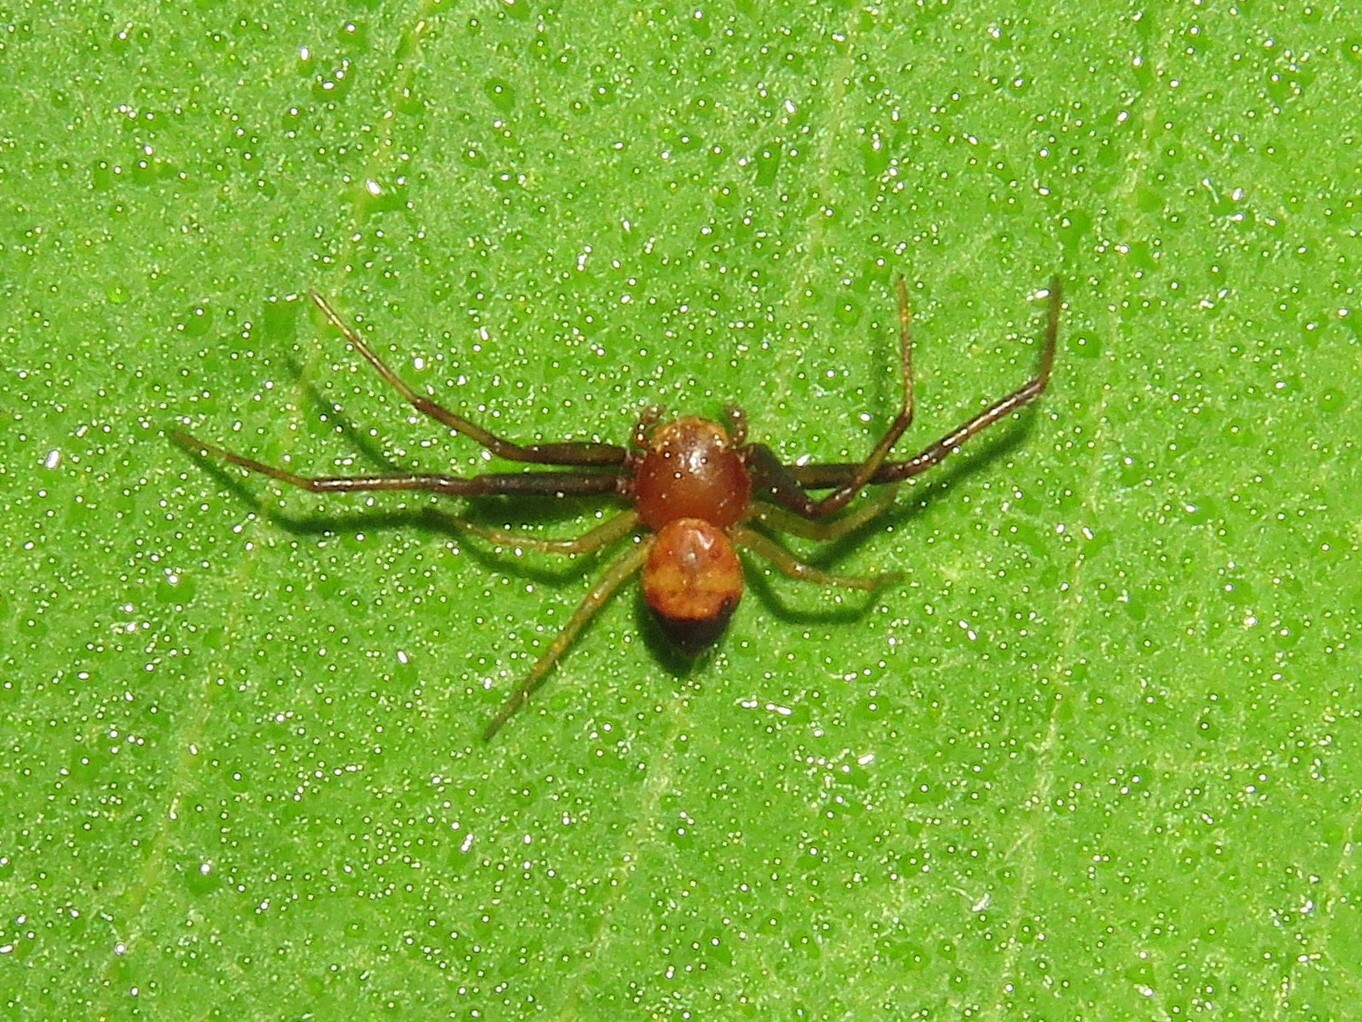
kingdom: Animalia
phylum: Arthropoda
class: Arachnida
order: Araneae
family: Thomisidae
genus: Synema
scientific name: Synema parvulum
